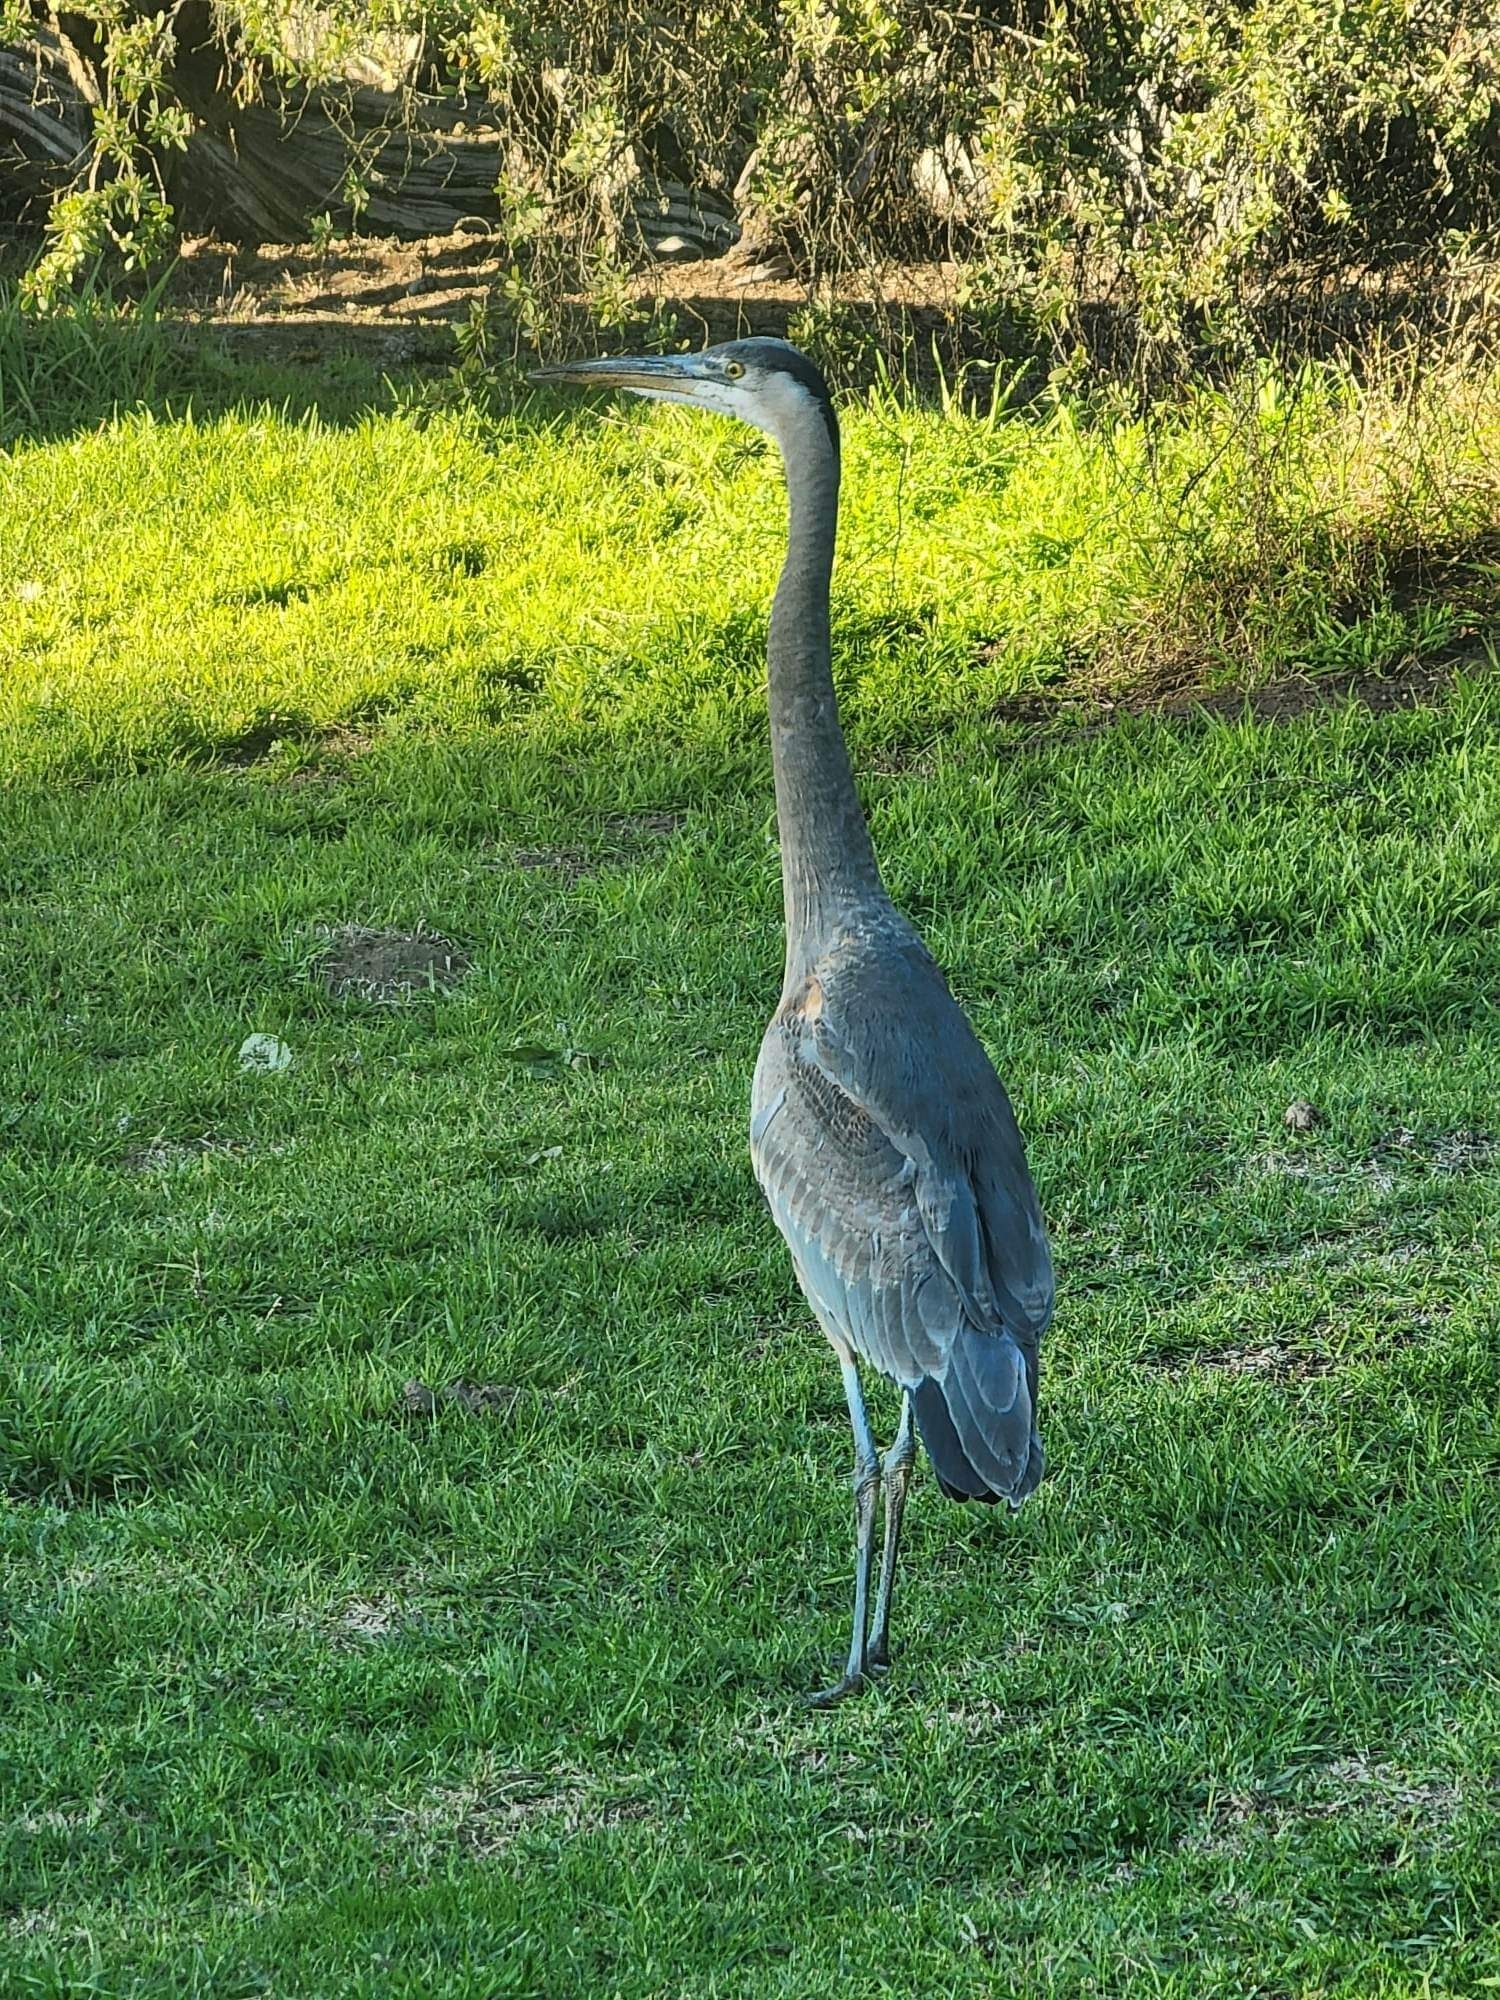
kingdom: Animalia
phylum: Chordata
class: Aves
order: Pelecaniformes
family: Ardeidae
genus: Ardea
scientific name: Ardea herodias
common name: Great blue heron
